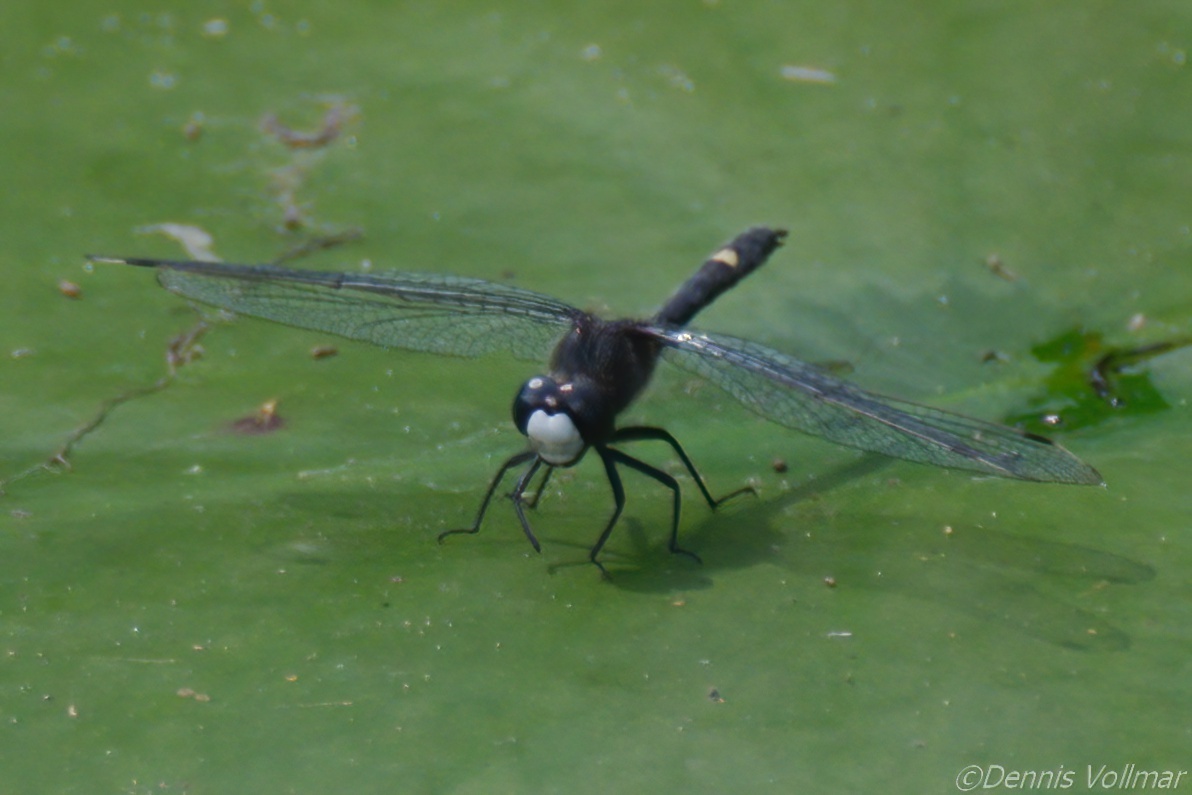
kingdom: Animalia
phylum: Arthropoda
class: Insecta
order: Odonata
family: Libellulidae
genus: Leucorrhinia
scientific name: Leucorrhinia intacta
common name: Dot-tailed whiteface
